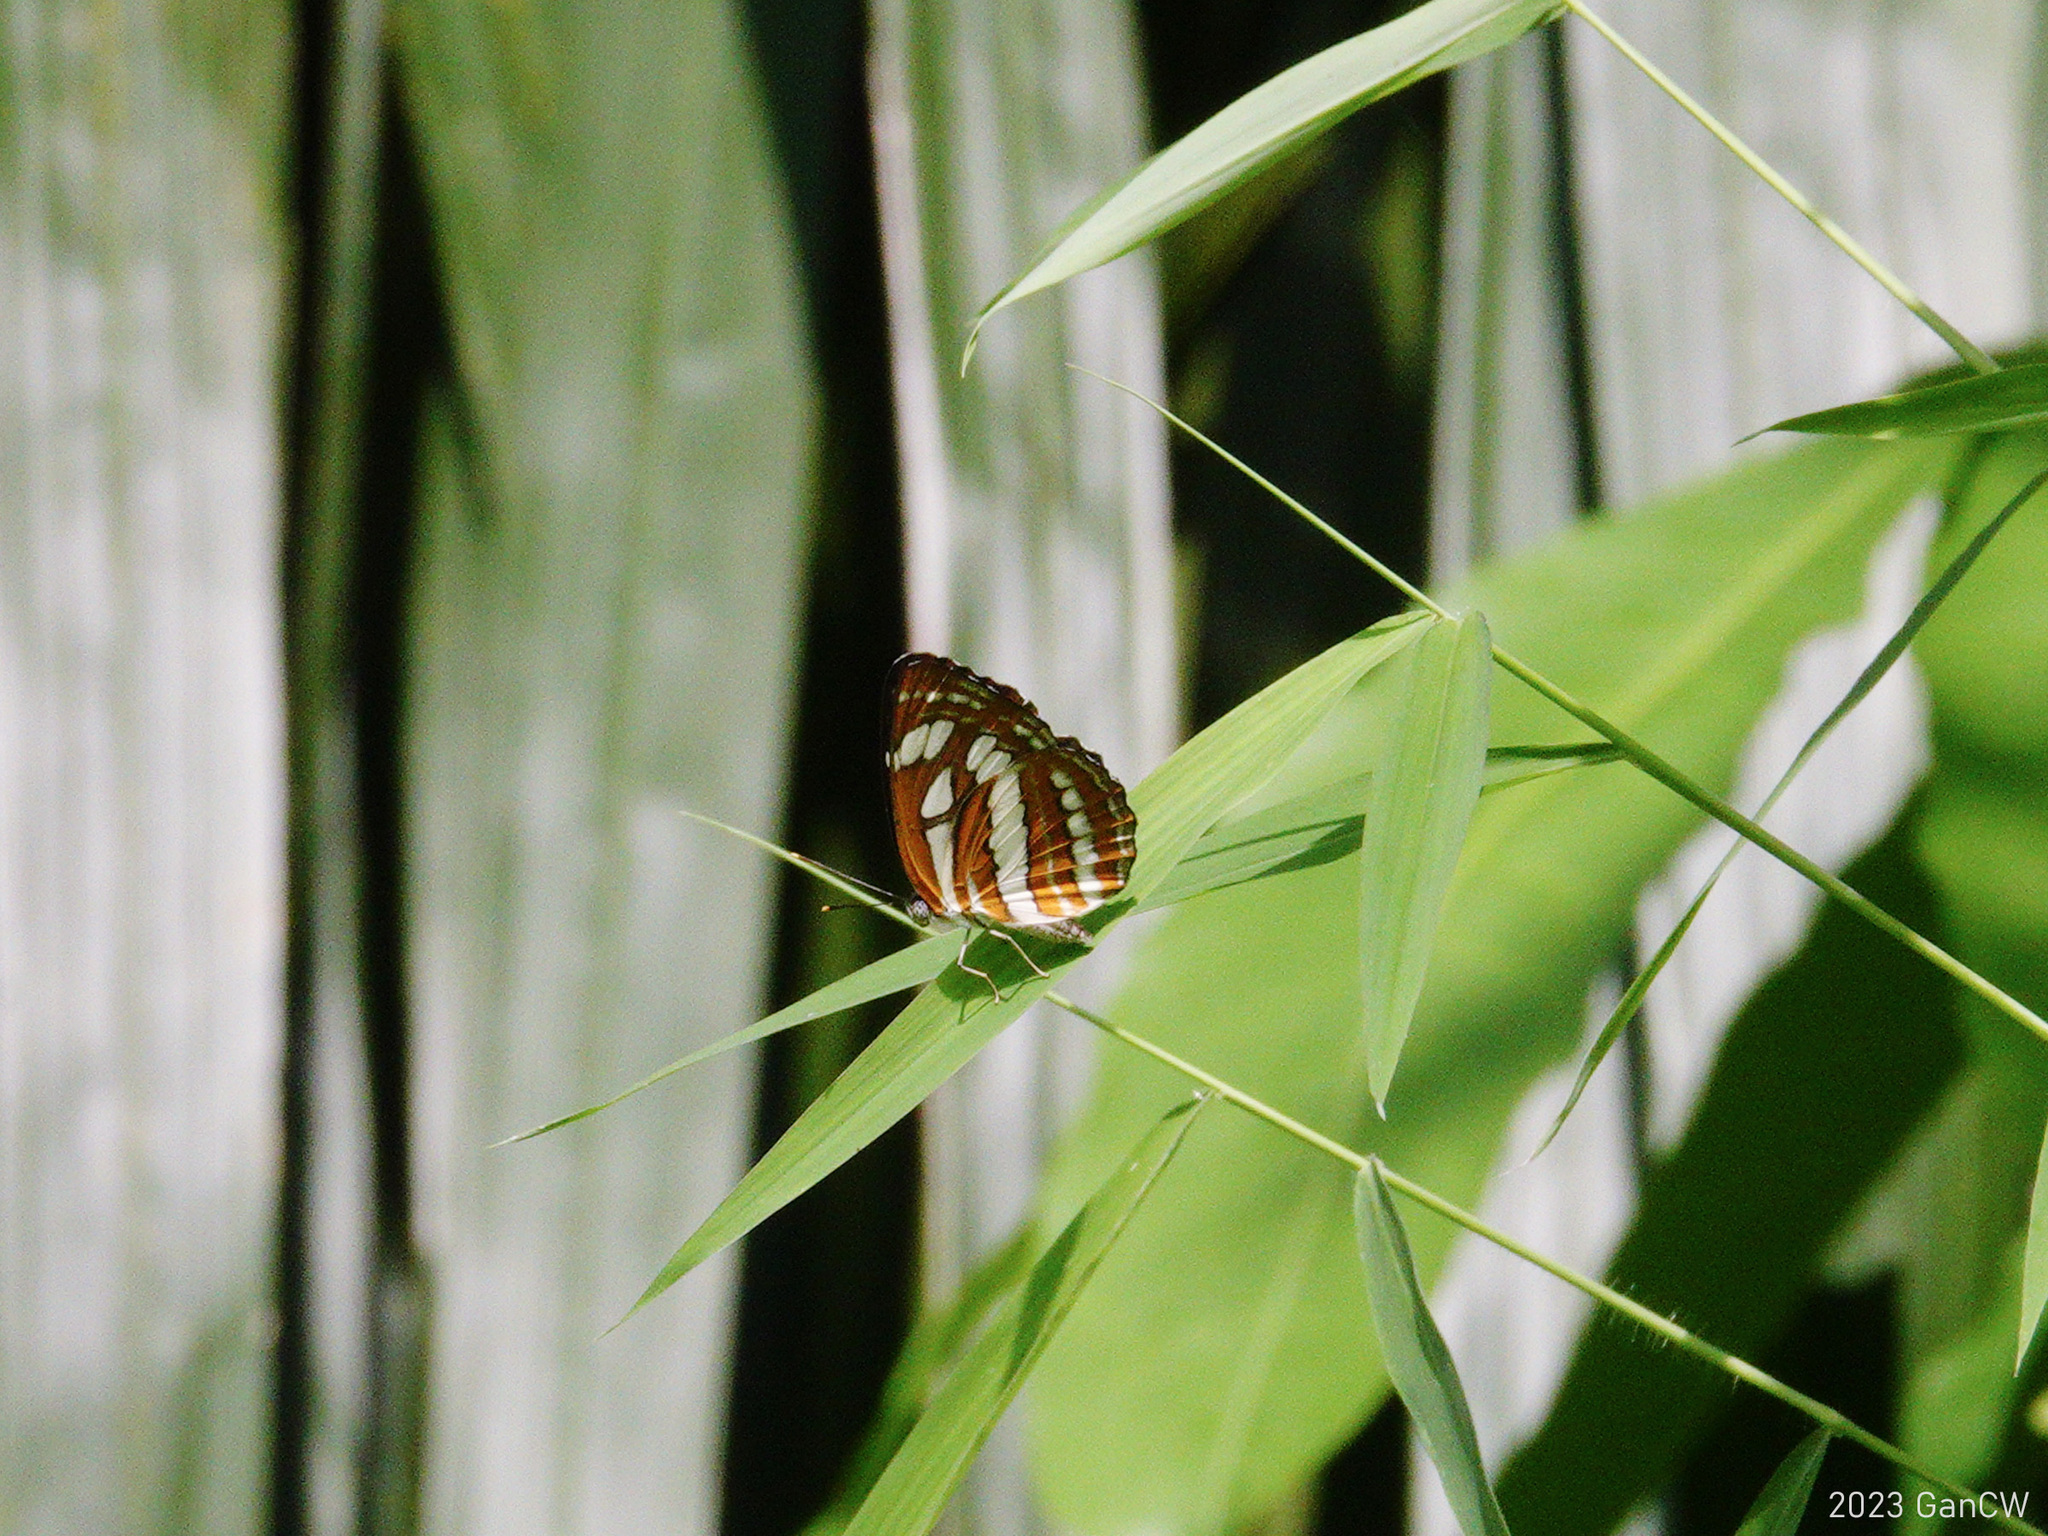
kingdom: Animalia
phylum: Arthropoda
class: Insecta
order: Lepidoptera
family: Nymphalidae
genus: Neptis
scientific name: Neptis hylas
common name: Common sailer
